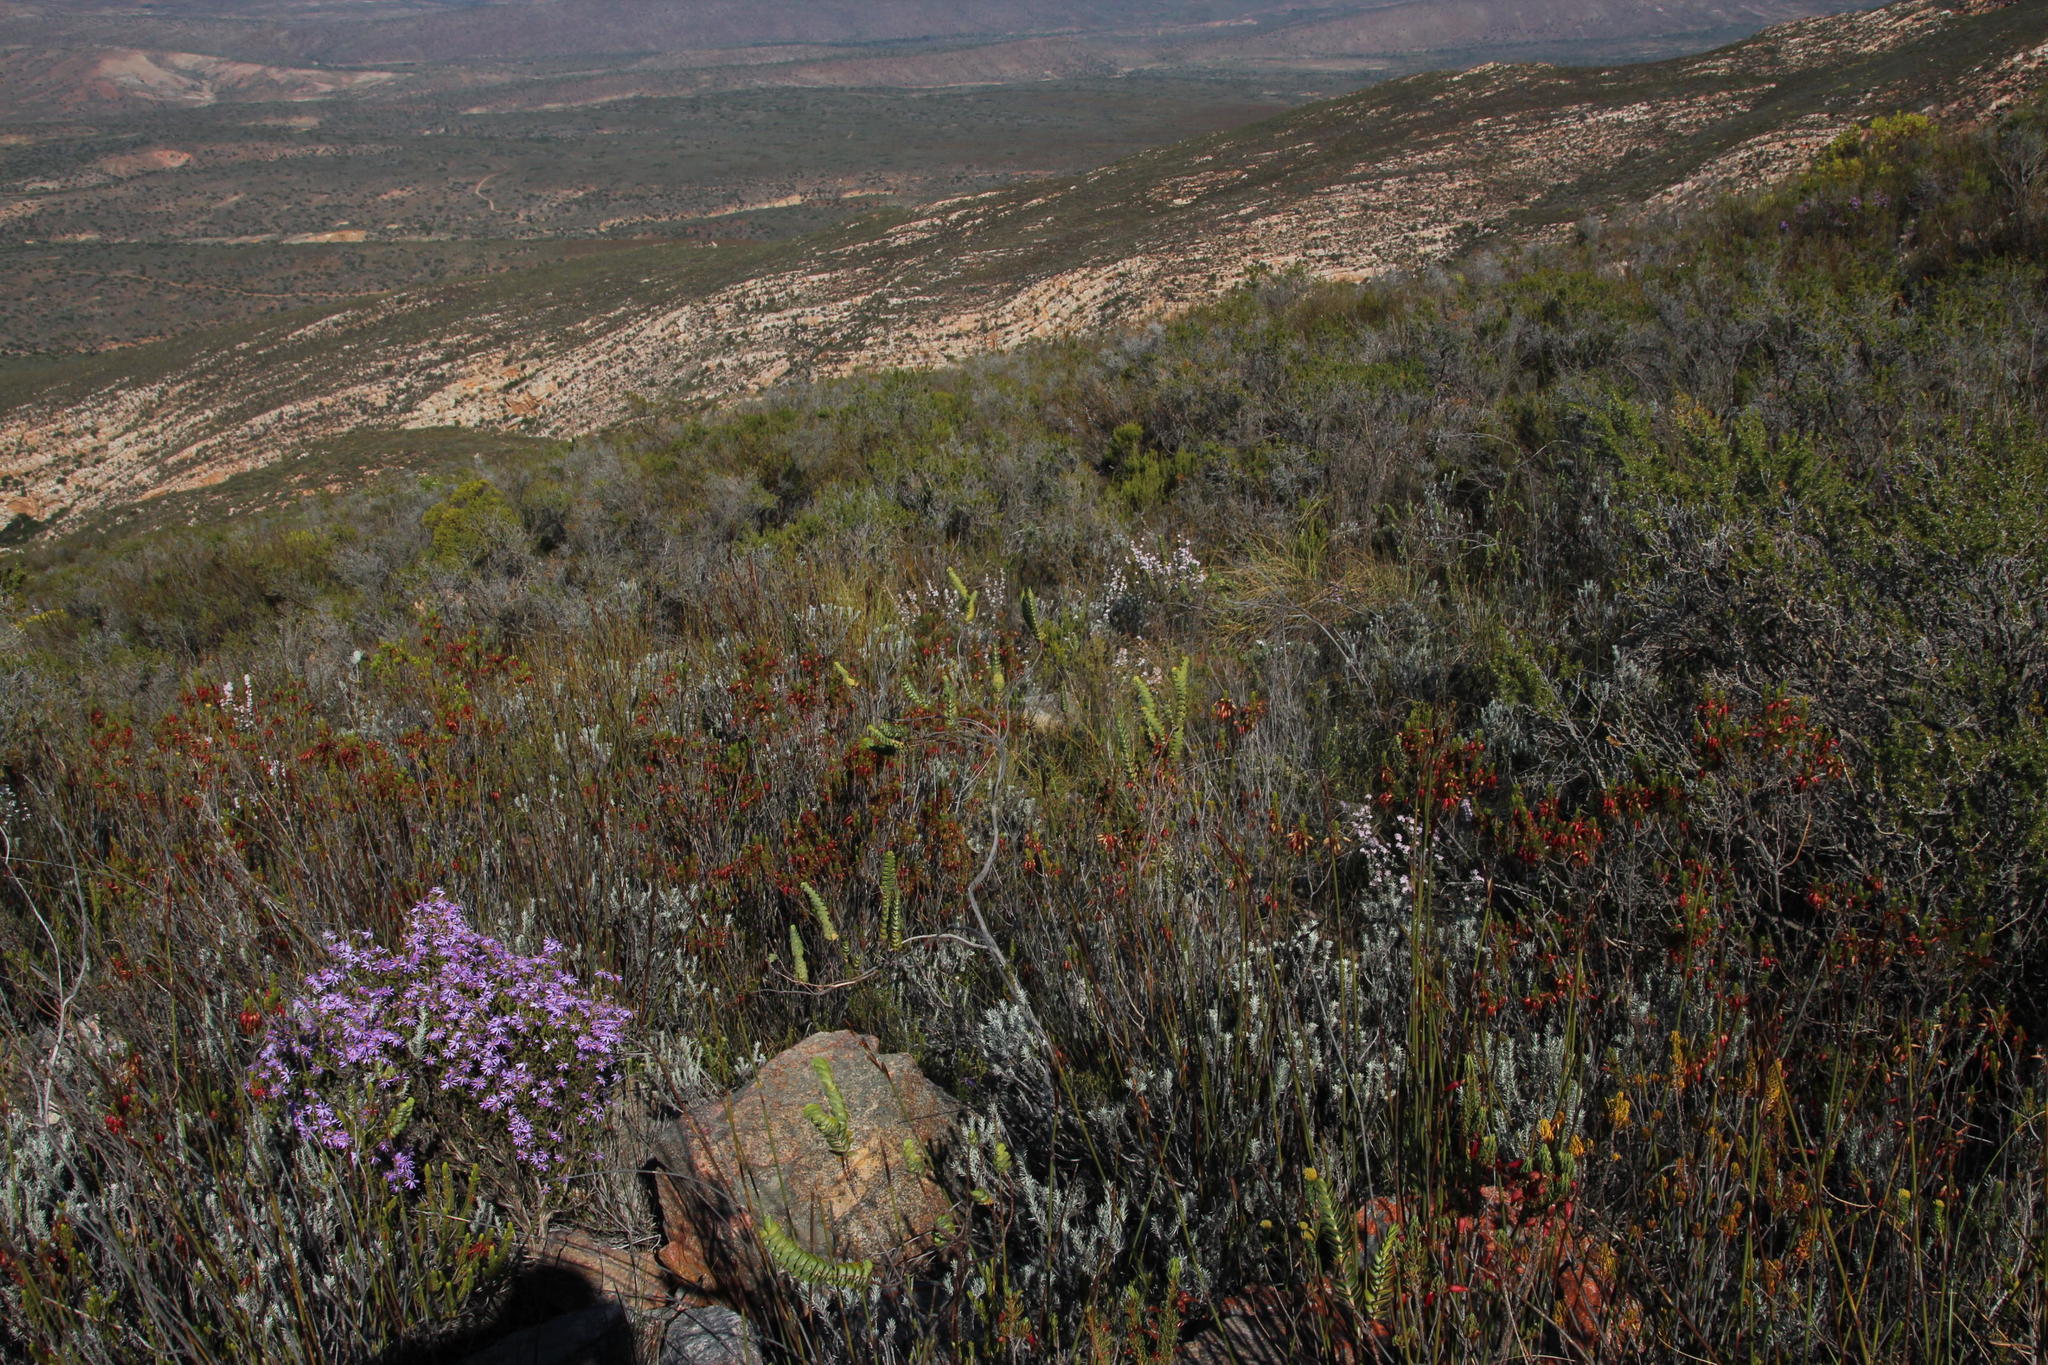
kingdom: Plantae
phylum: Tracheophyta
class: Magnoliopsida
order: Rosales
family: Rosaceae
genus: Cliffortia
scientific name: Cliffortia crenata
